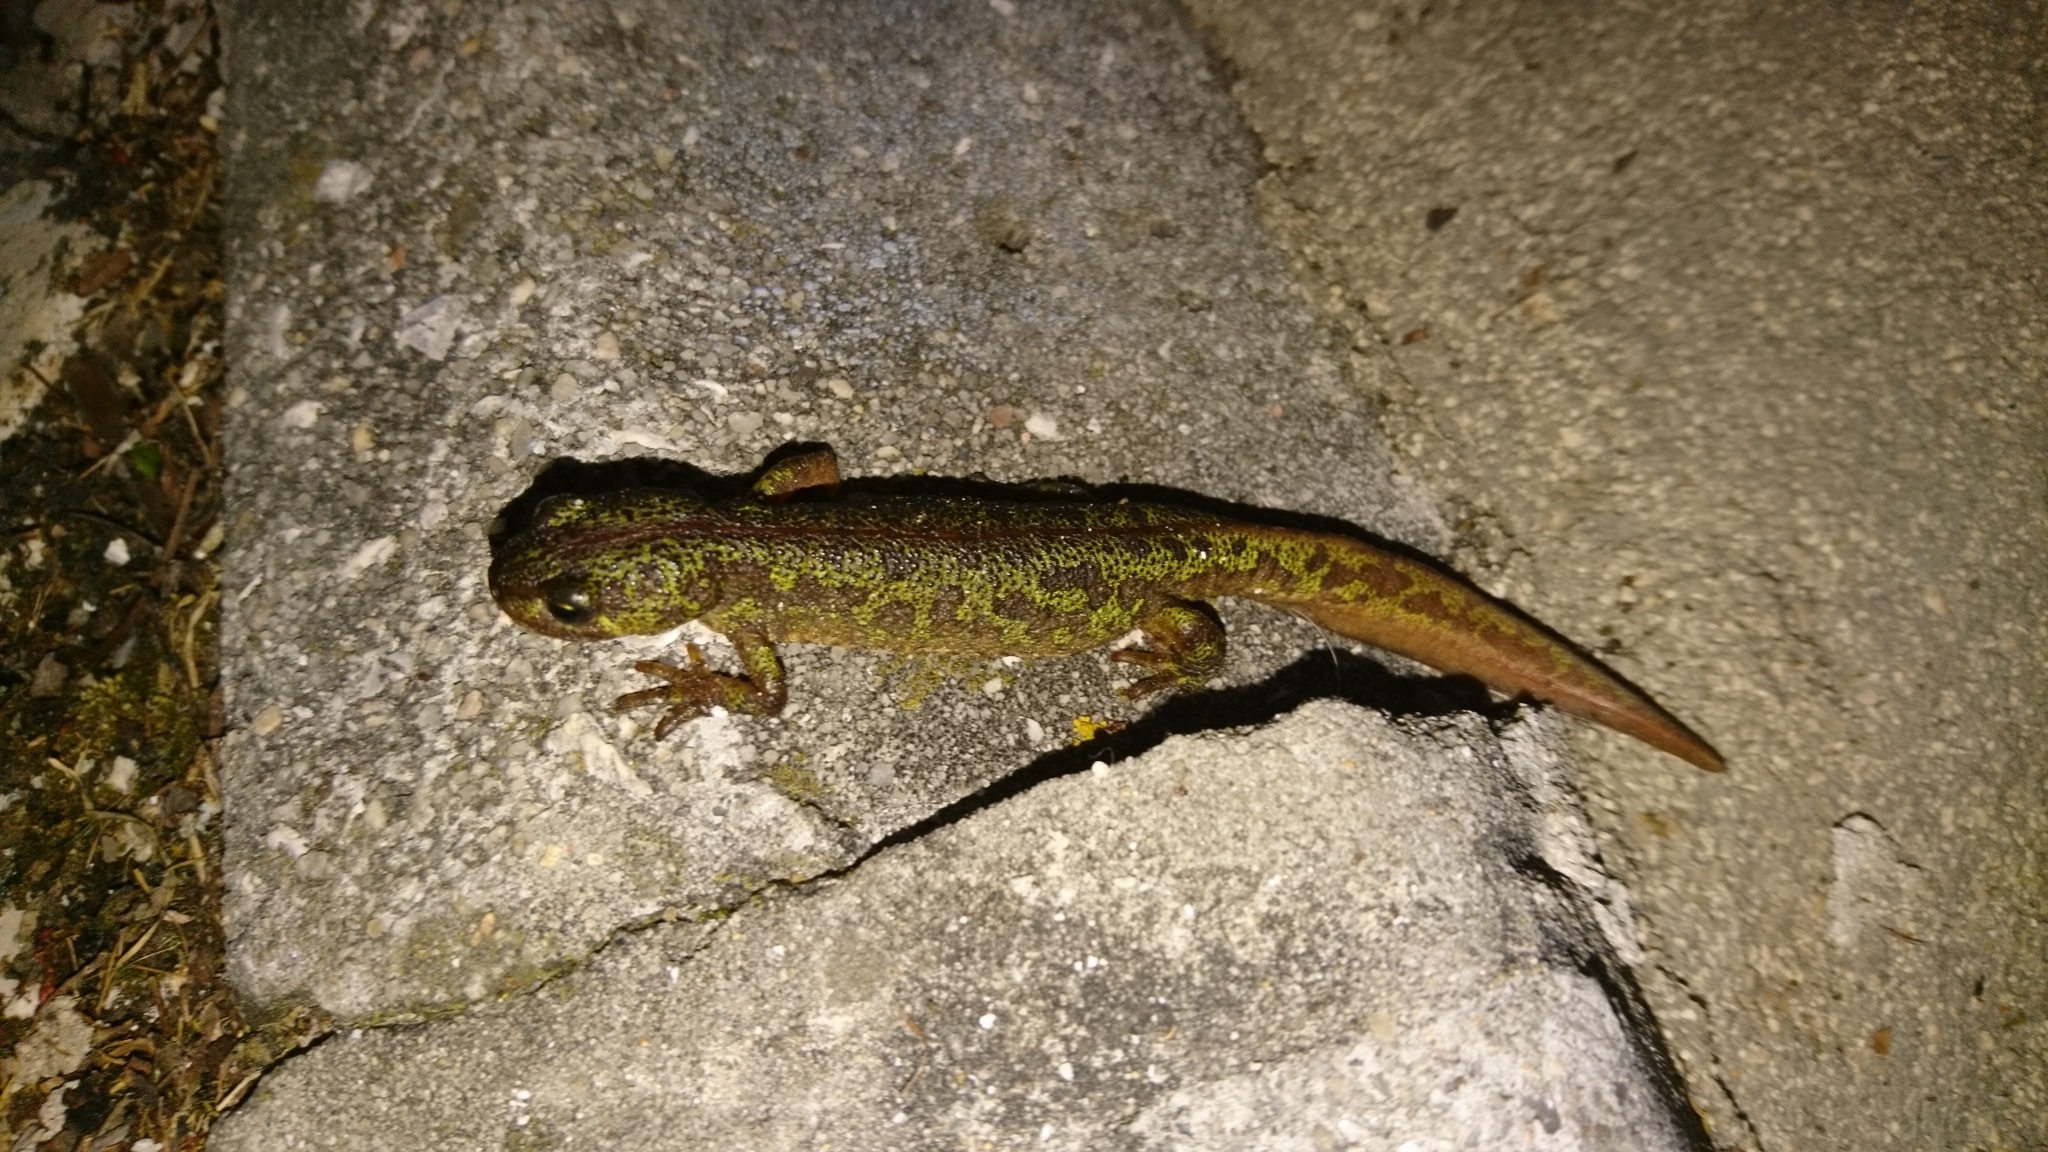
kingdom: Animalia
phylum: Chordata
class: Amphibia
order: Caudata
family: Salamandridae
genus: Triturus
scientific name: Triturus marmoratus
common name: Marbled newt
